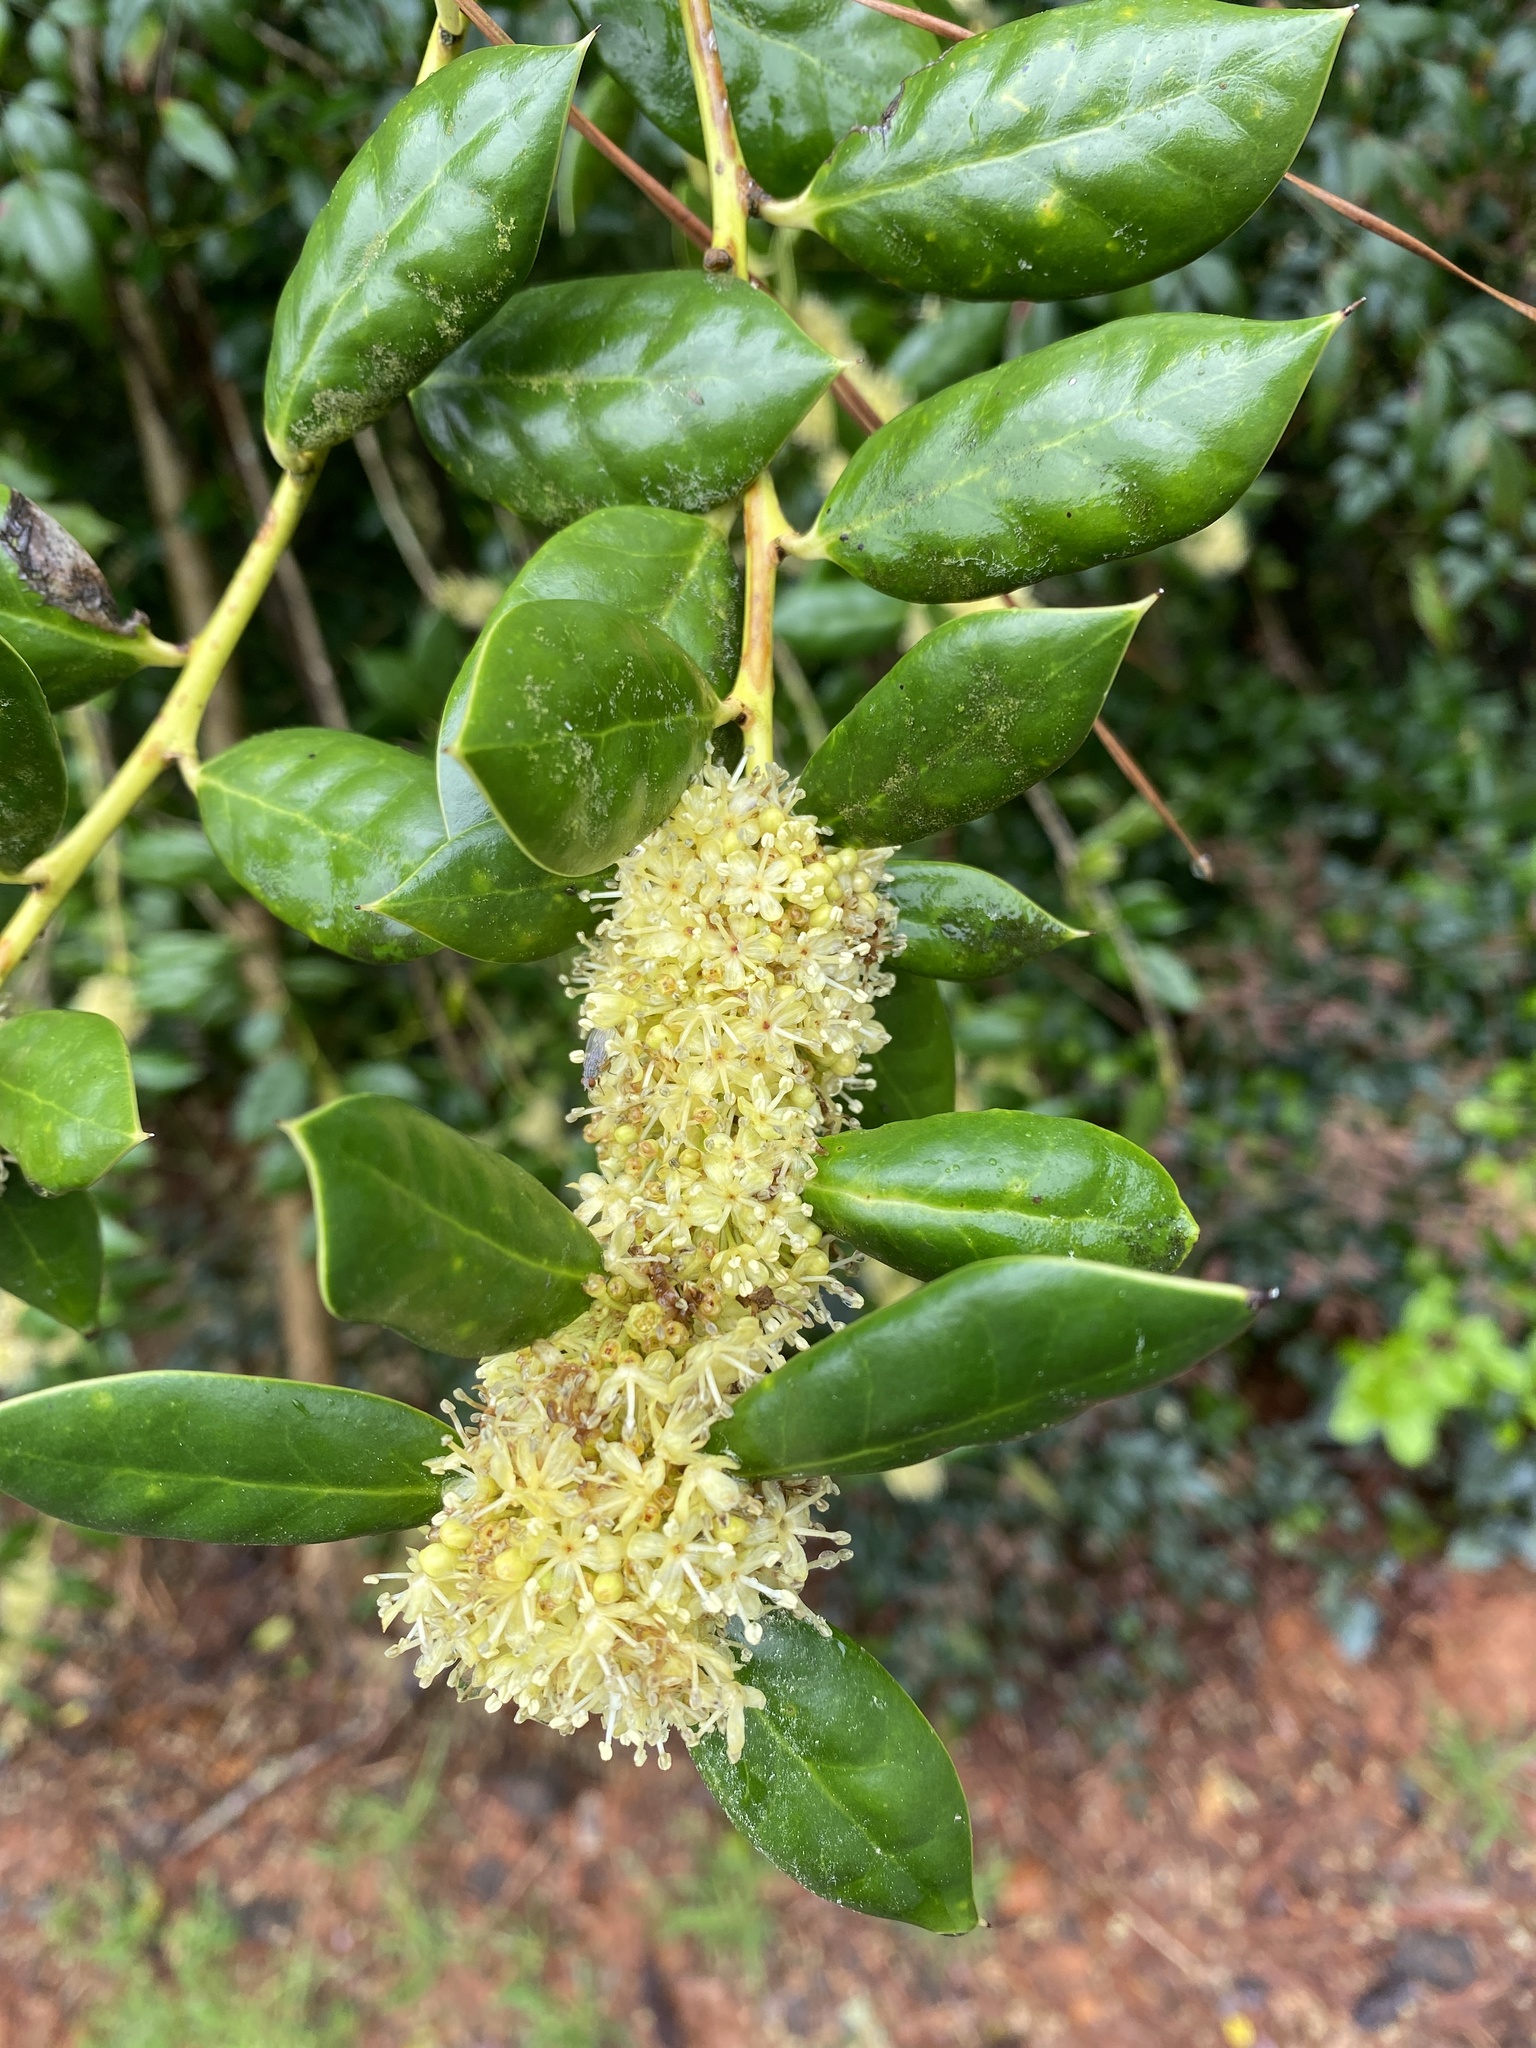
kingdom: Plantae
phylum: Tracheophyta
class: Magnoliopsida
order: Aquifoliales
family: Aquifoliaceae
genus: Ilex
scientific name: Ilex cornuta
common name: Chinese holly
